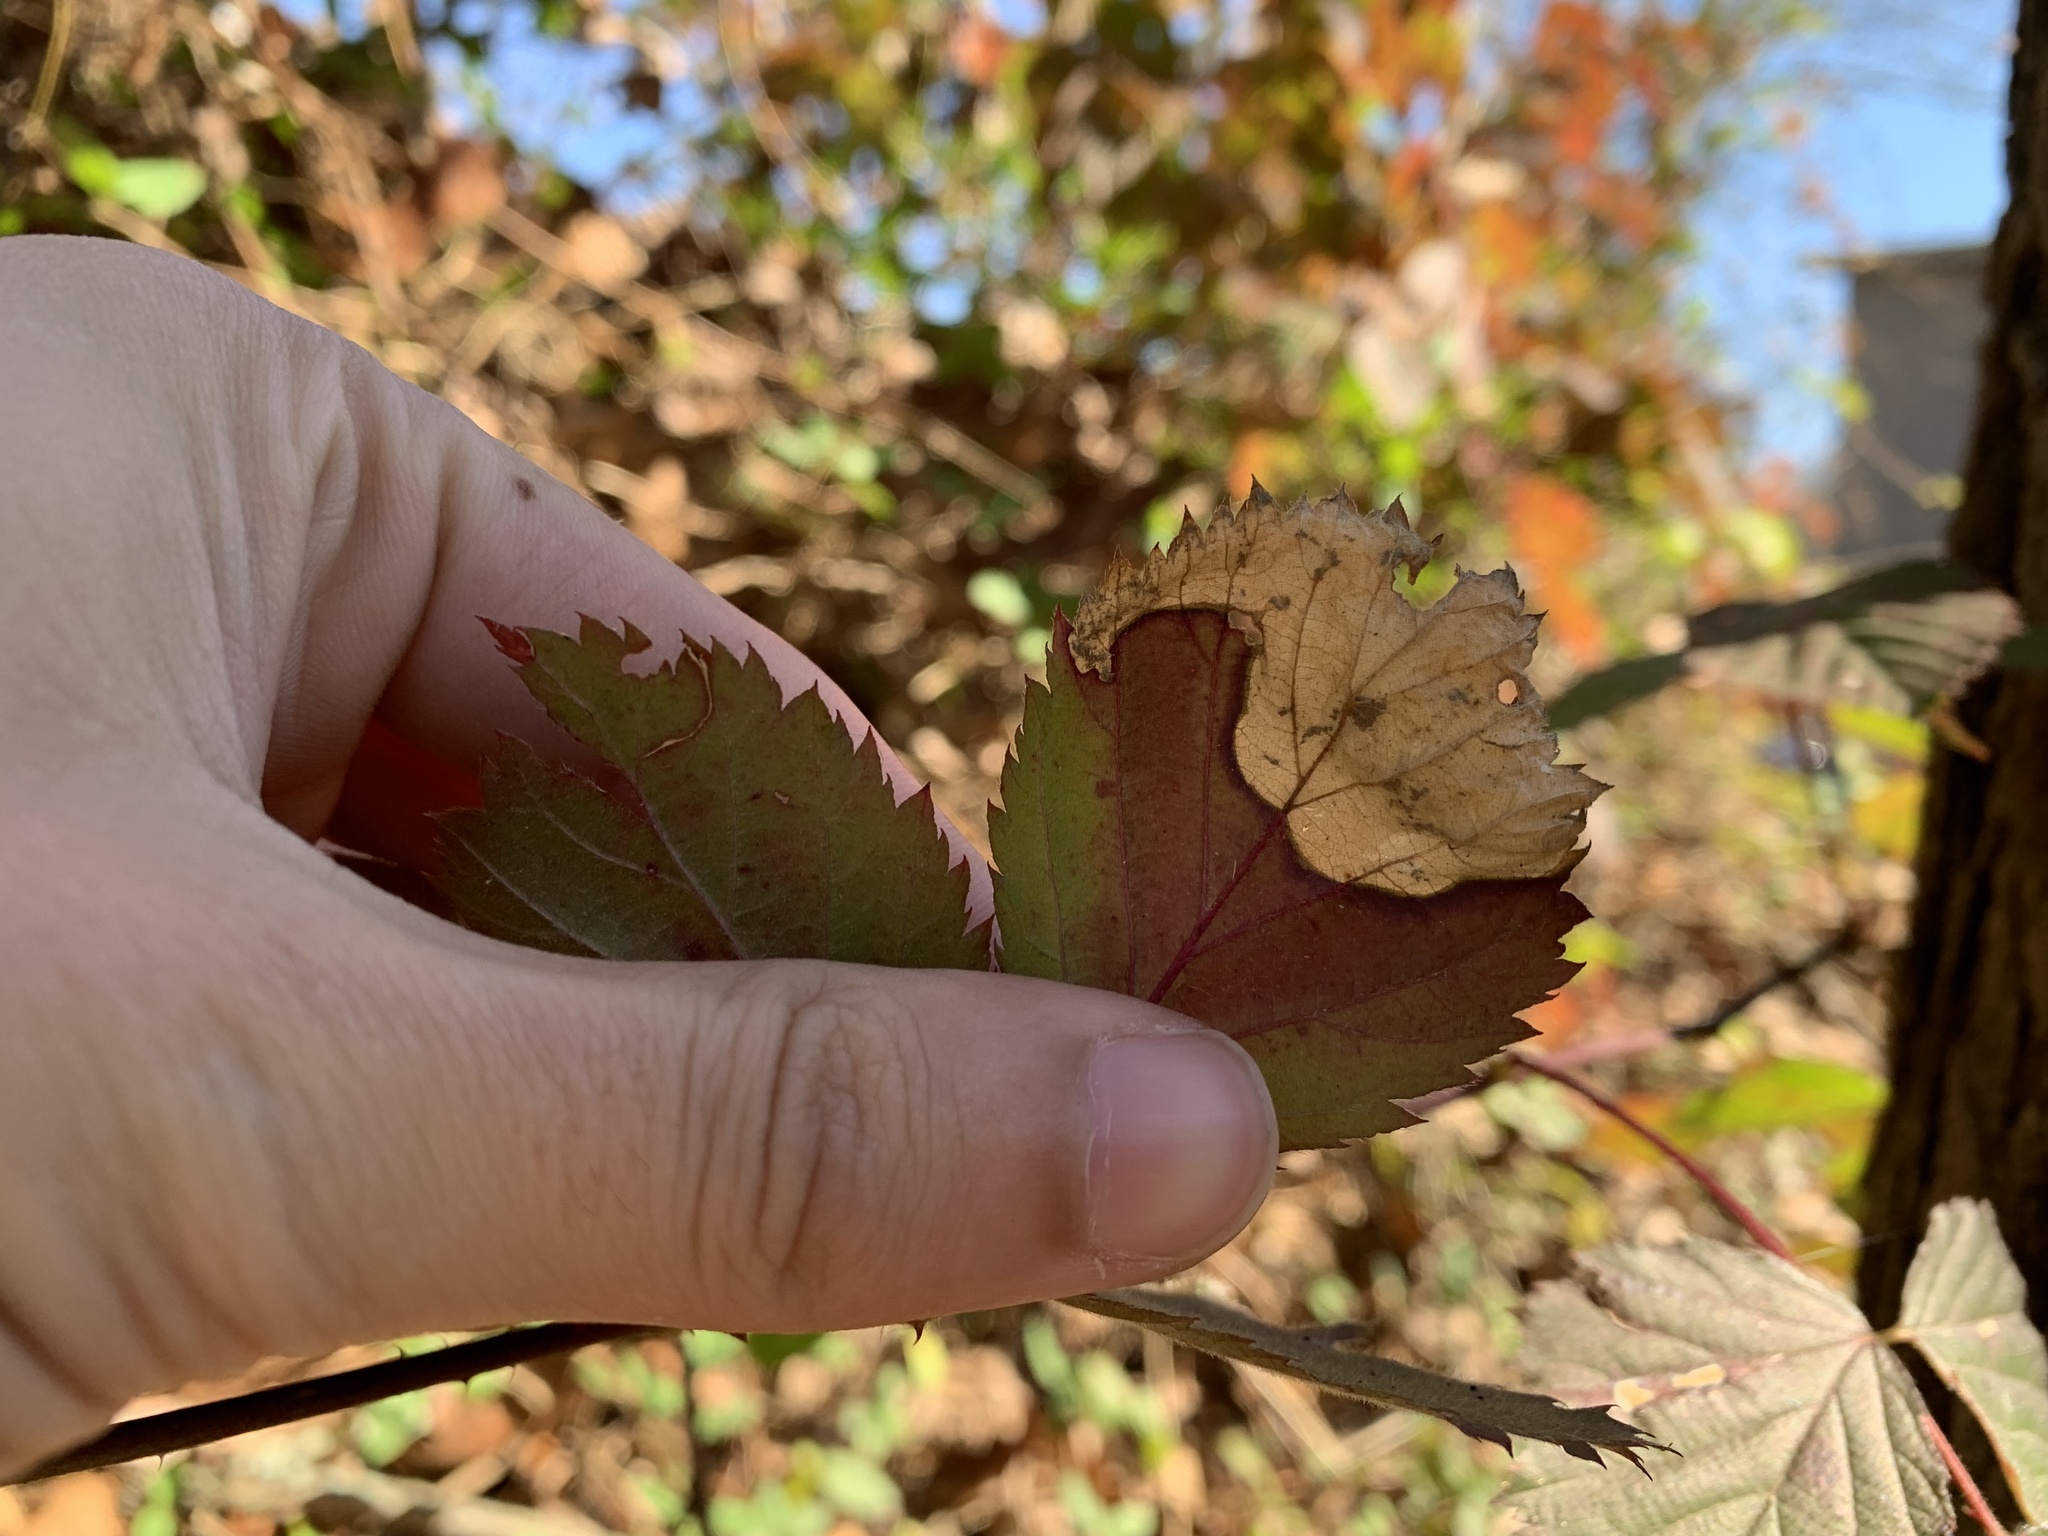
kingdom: Animalia
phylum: Arthropoda
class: Insecta
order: Hymenoptera
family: Tenthredinidae
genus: Metallus
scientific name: Metallus rohweri
